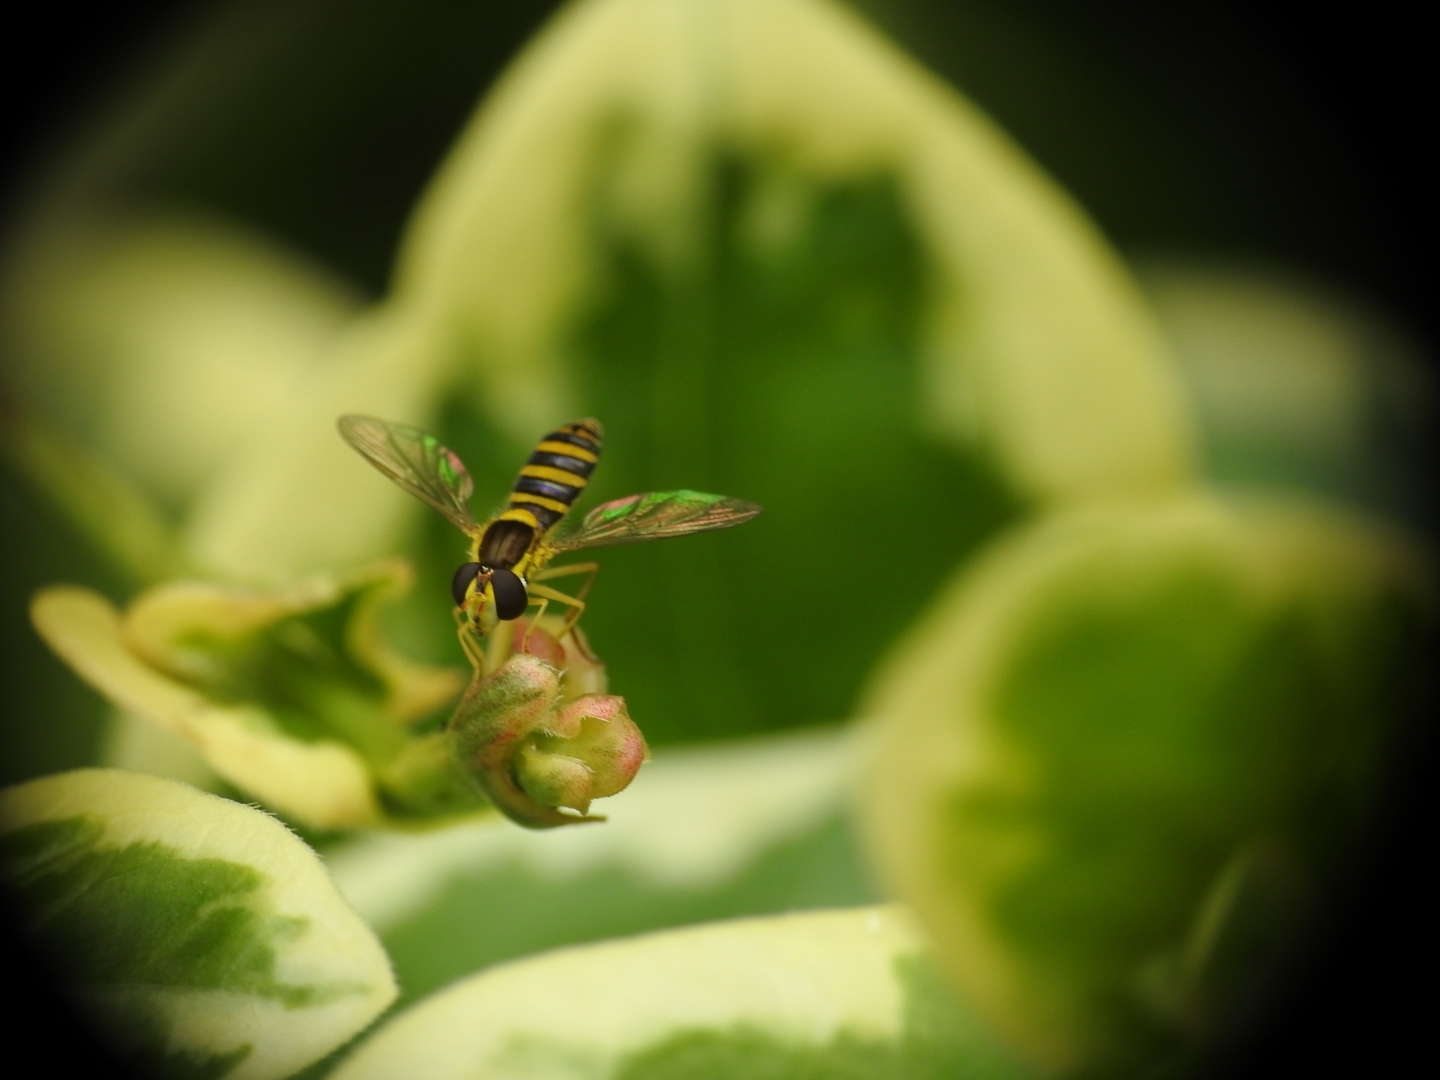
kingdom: Animalia
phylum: Arthropoda
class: Insecta
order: Diptera
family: Syrphidae
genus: Sphaerophoria
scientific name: Sphaerophoria
